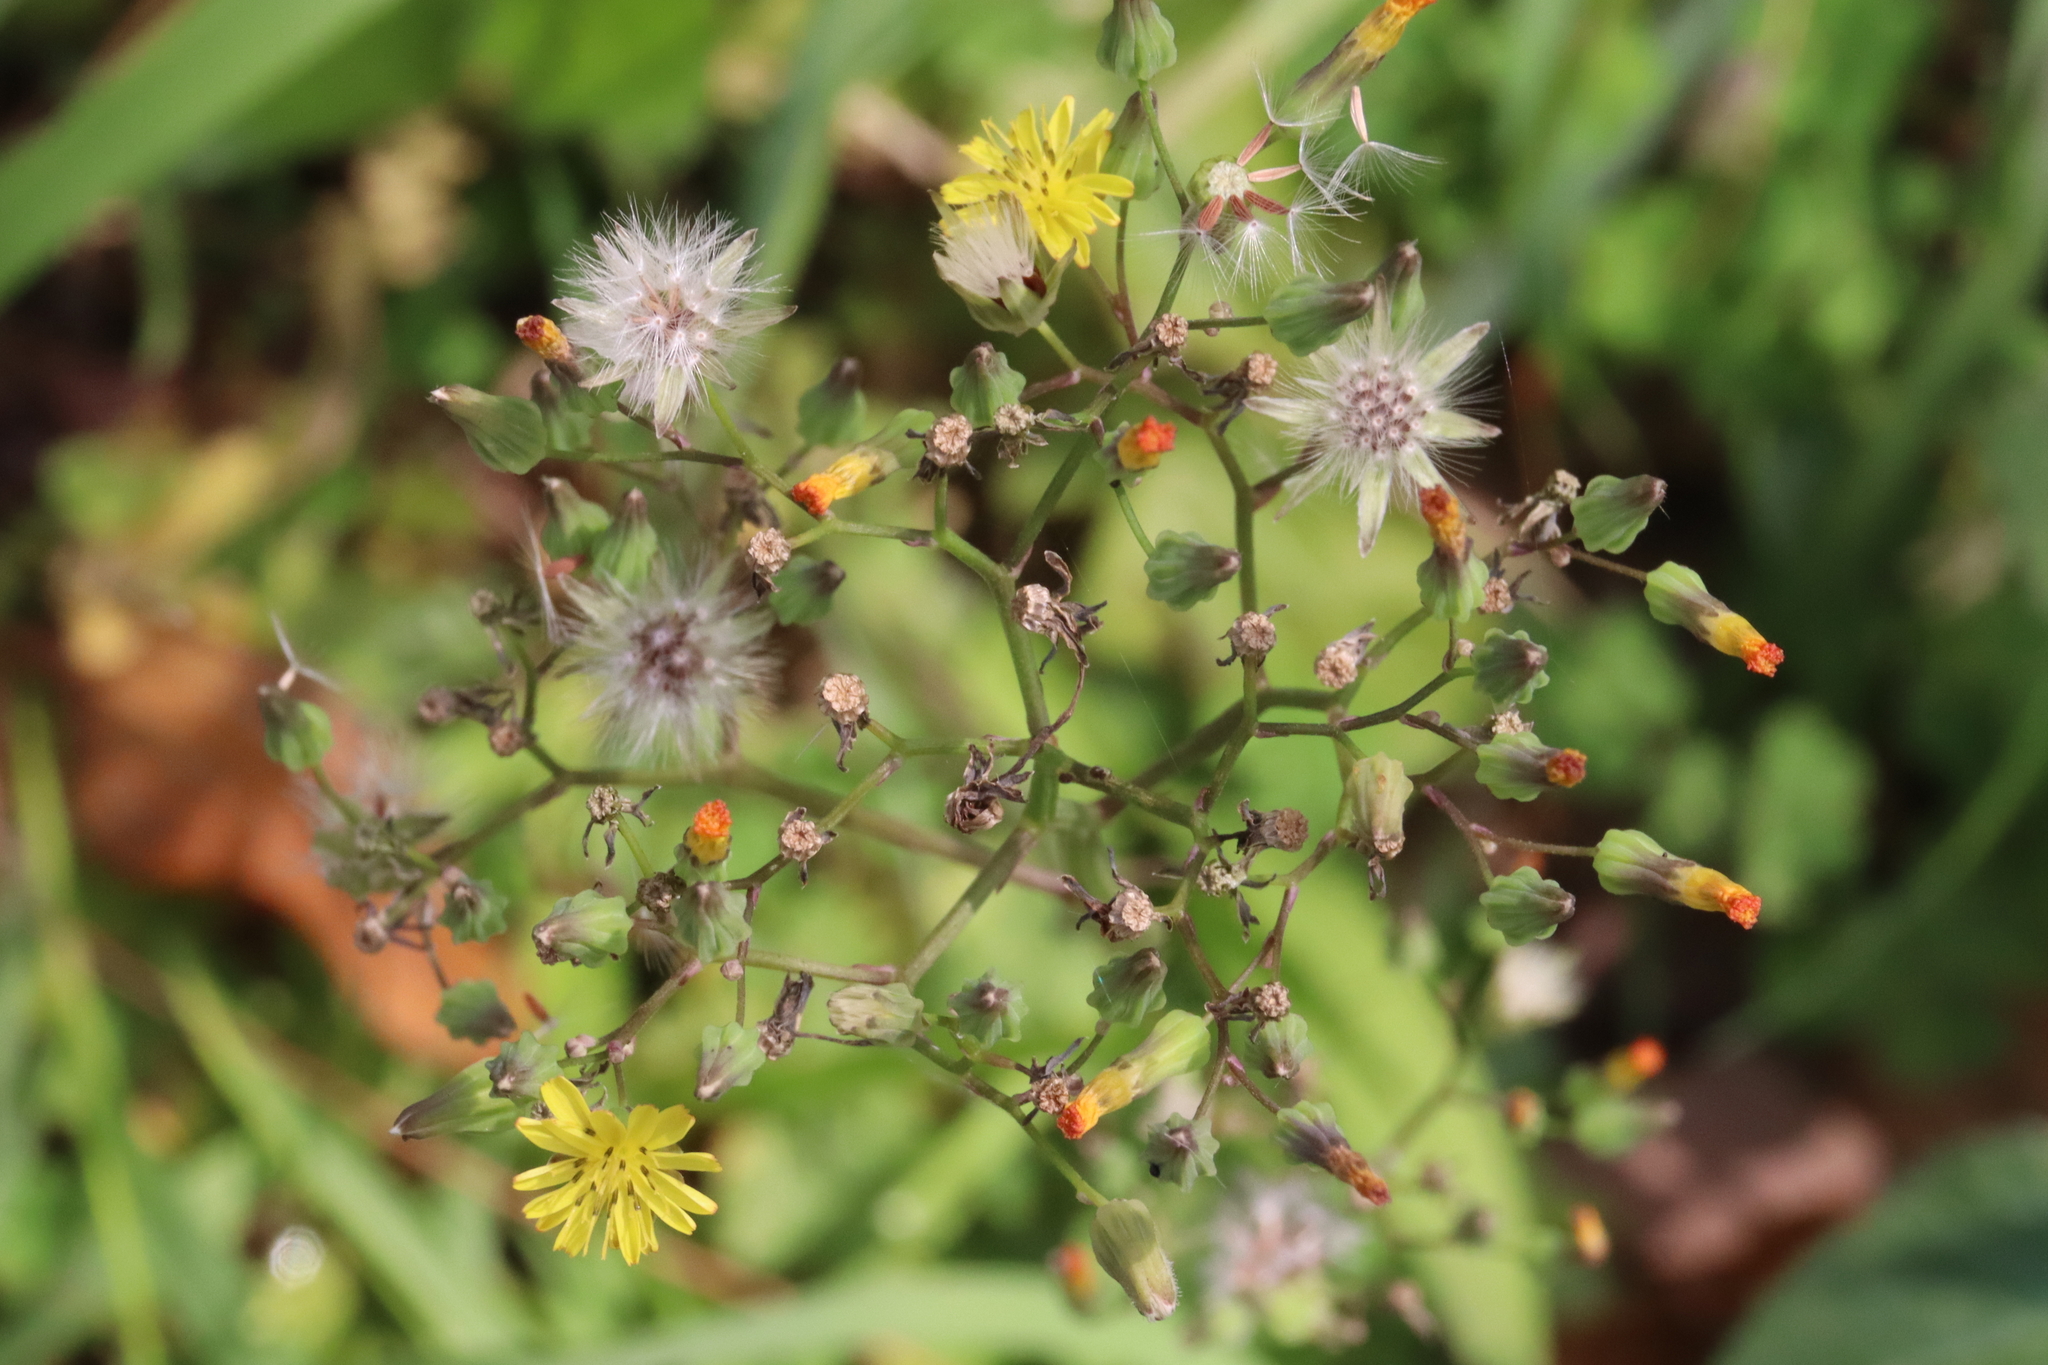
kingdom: Plantae
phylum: Tracheophyta
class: Magnoliopsida
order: Asterales
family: Asteraceae
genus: Youngia
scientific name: Youngia japonica
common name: Oriental false hawksbeard
